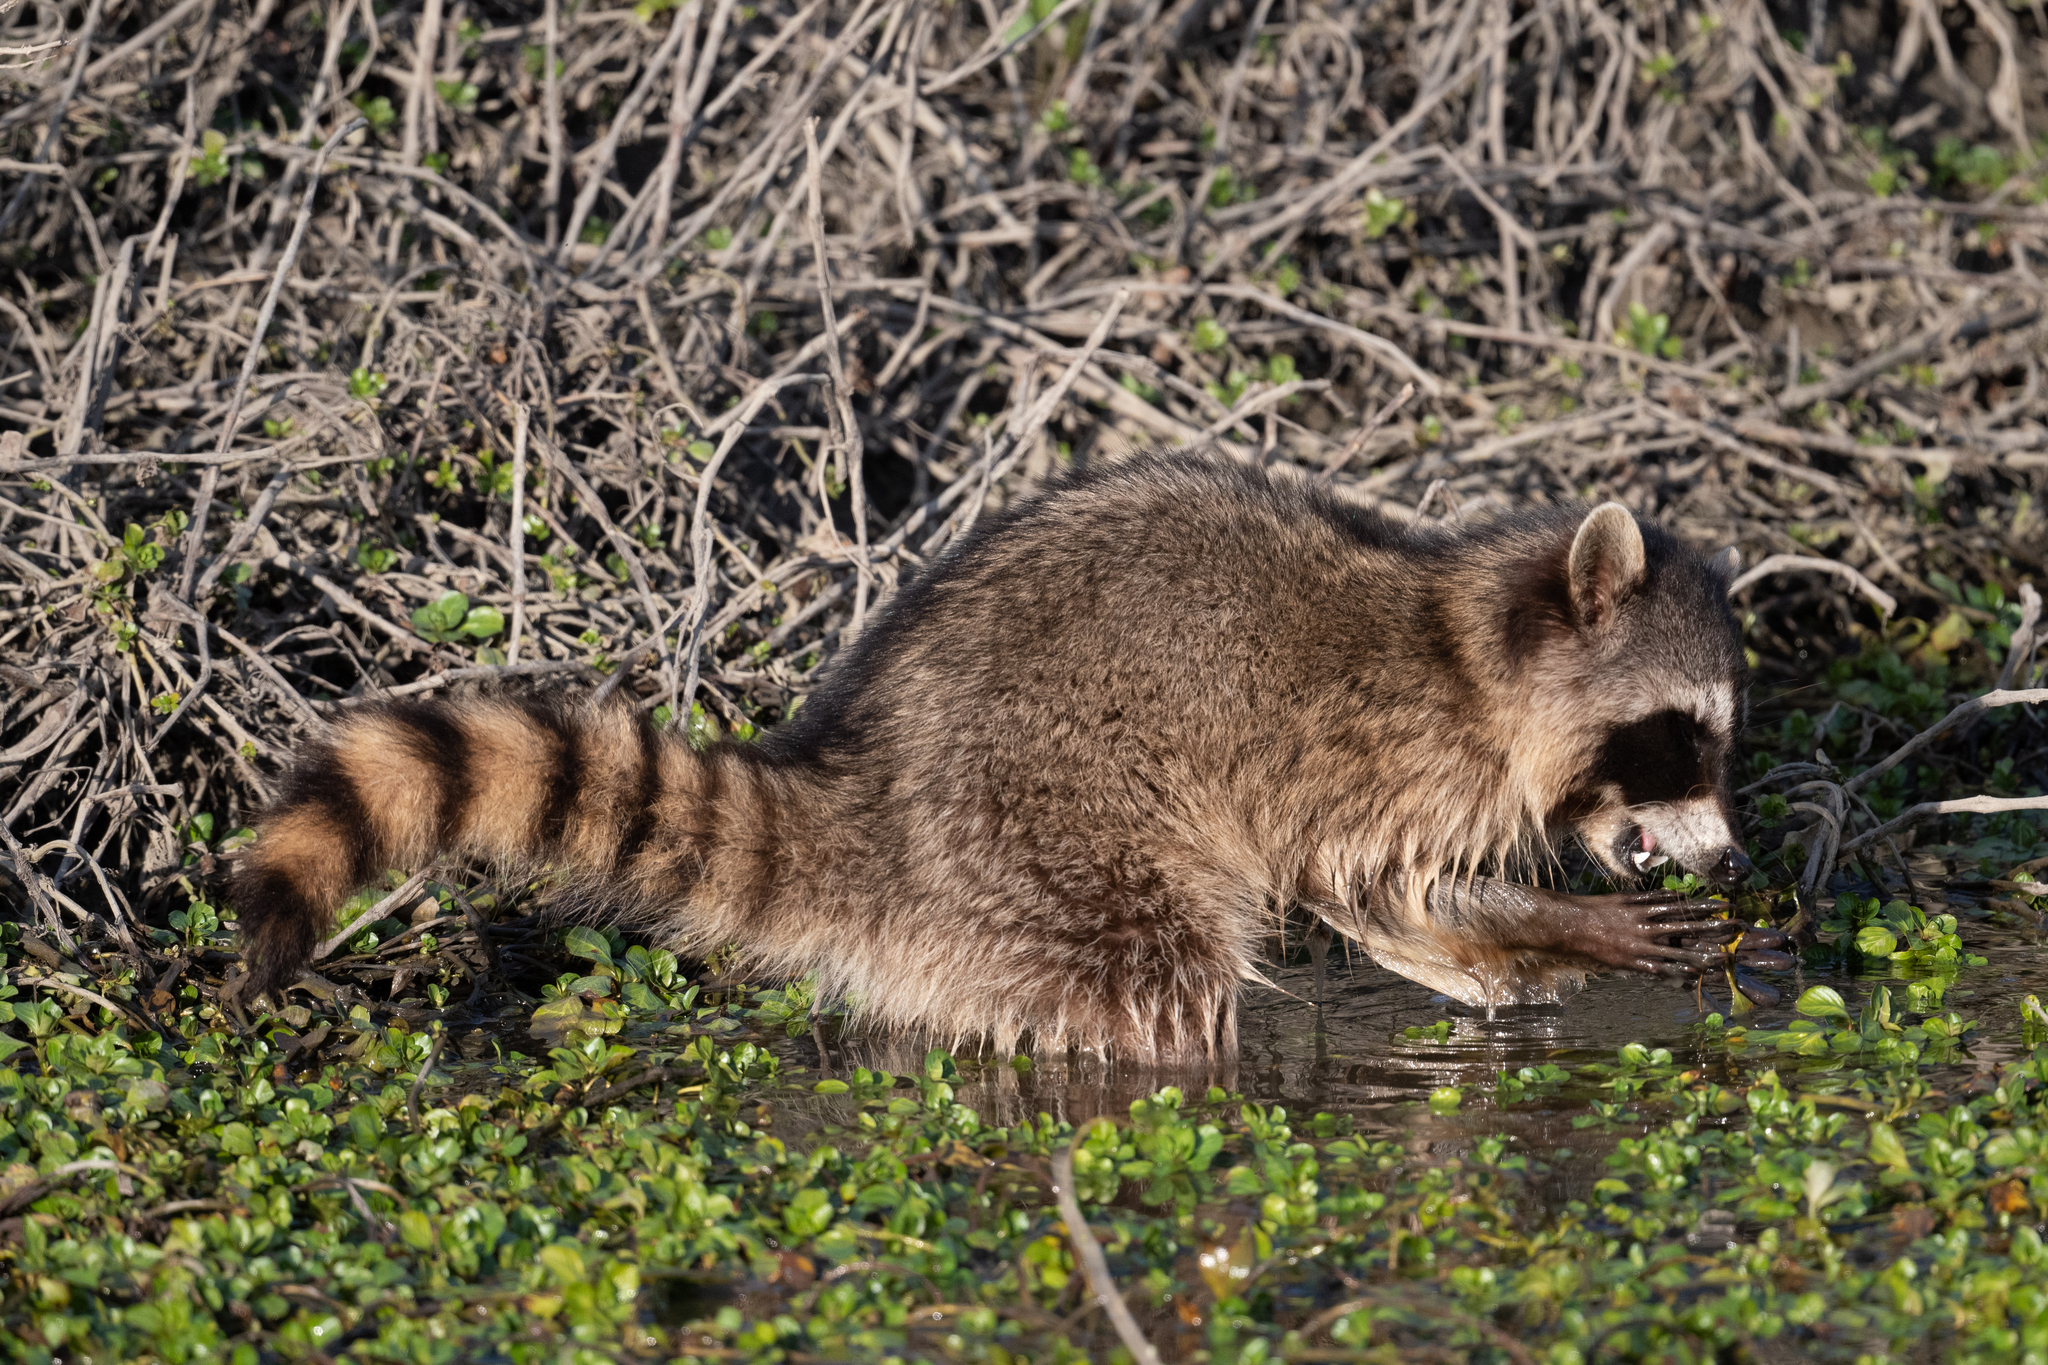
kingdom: Animalia
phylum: Chordata
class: Mammalia
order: Carnivora
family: Procyonidae
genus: Procyon
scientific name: Procyon lotor
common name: Raccoon
